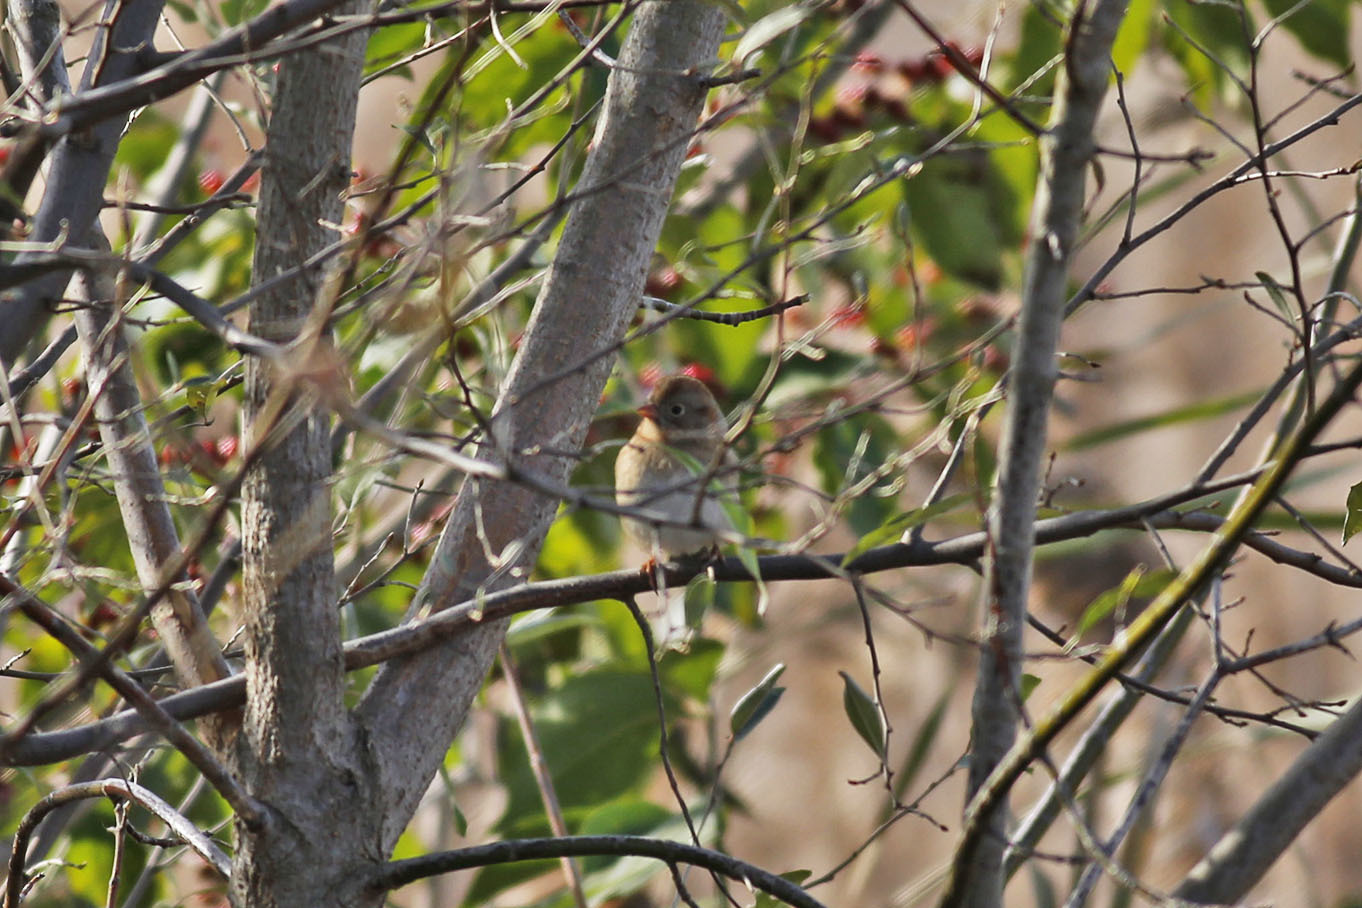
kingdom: Animalia
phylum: Chordata
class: Aves
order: Passeriformes
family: Passerellidae
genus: Spizella
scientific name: Spizella pusilla
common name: Field sparrow
